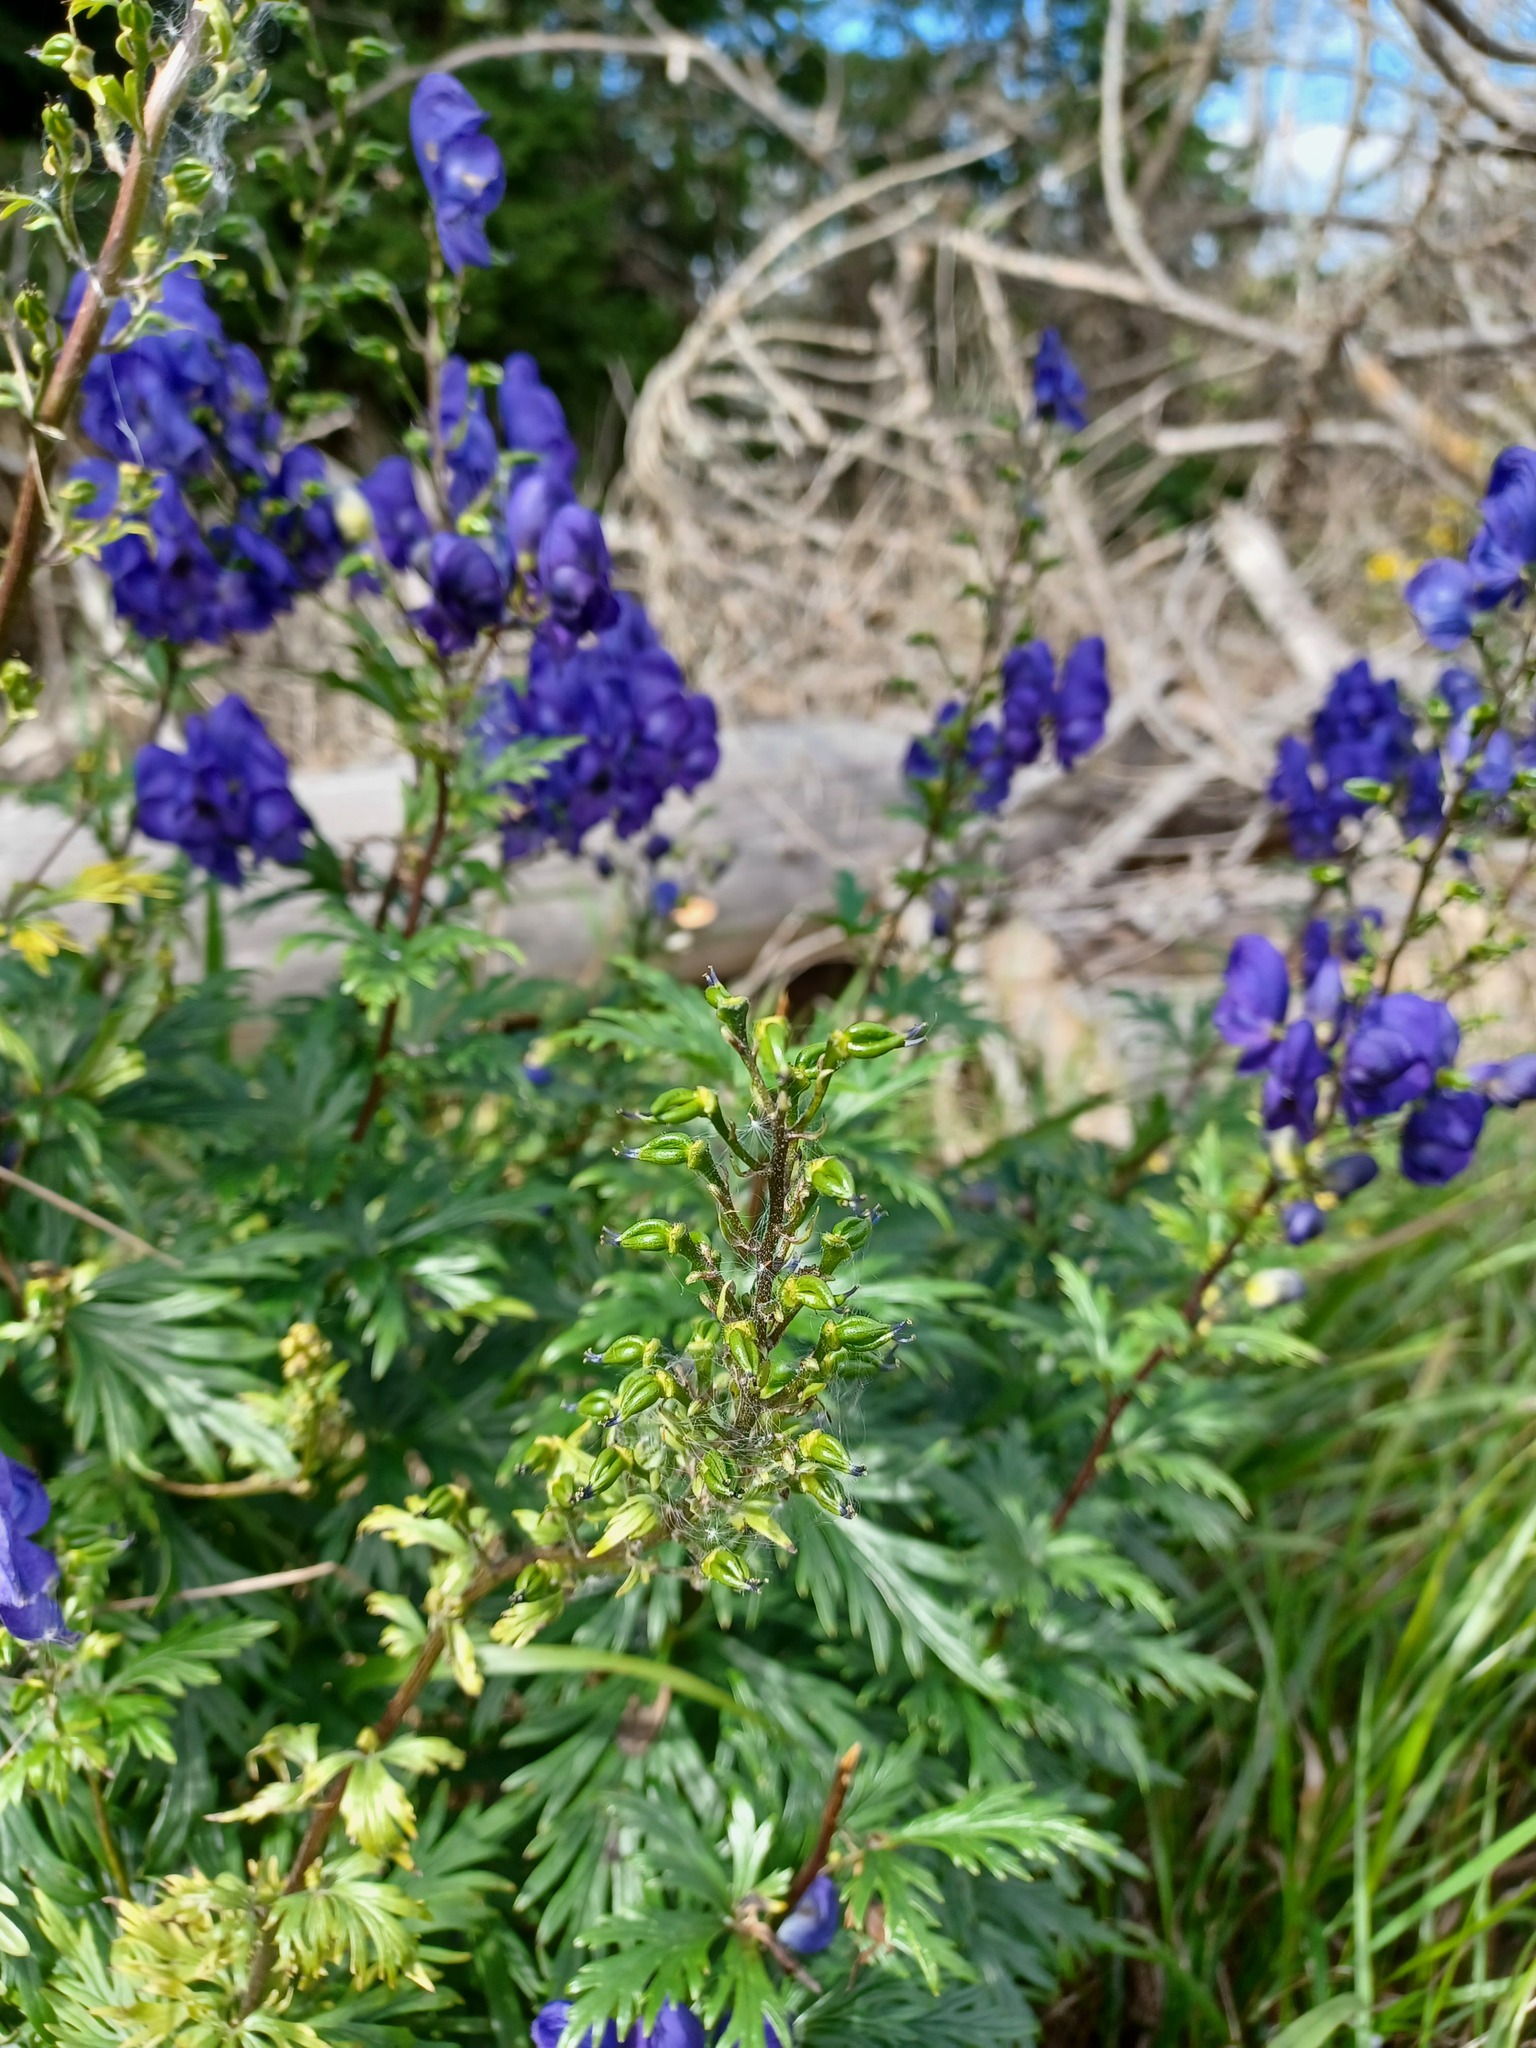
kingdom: Plantae
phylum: Tracheophyta
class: Magnoliopsida
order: Ranunculales
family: Ranunculaceae
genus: Aconitum
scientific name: Aconitum napellus
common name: Garden monkshood
